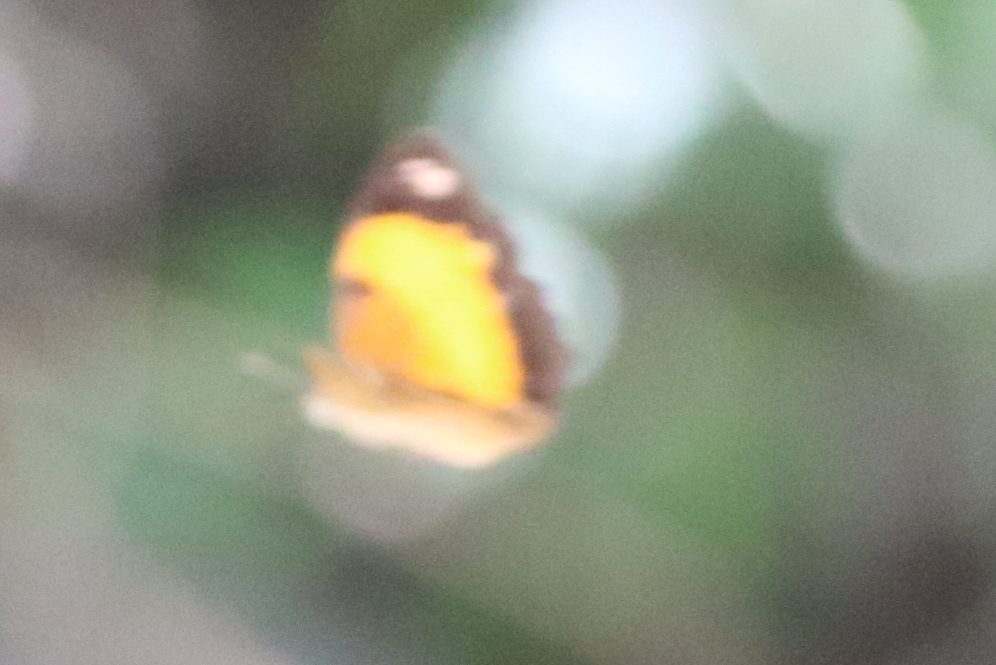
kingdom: Animalia
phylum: Arthropoda
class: Insecta
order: Lepidoptera
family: Nymphalidae
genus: Cupha
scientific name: Cupha prosope
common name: Bordered rustic
